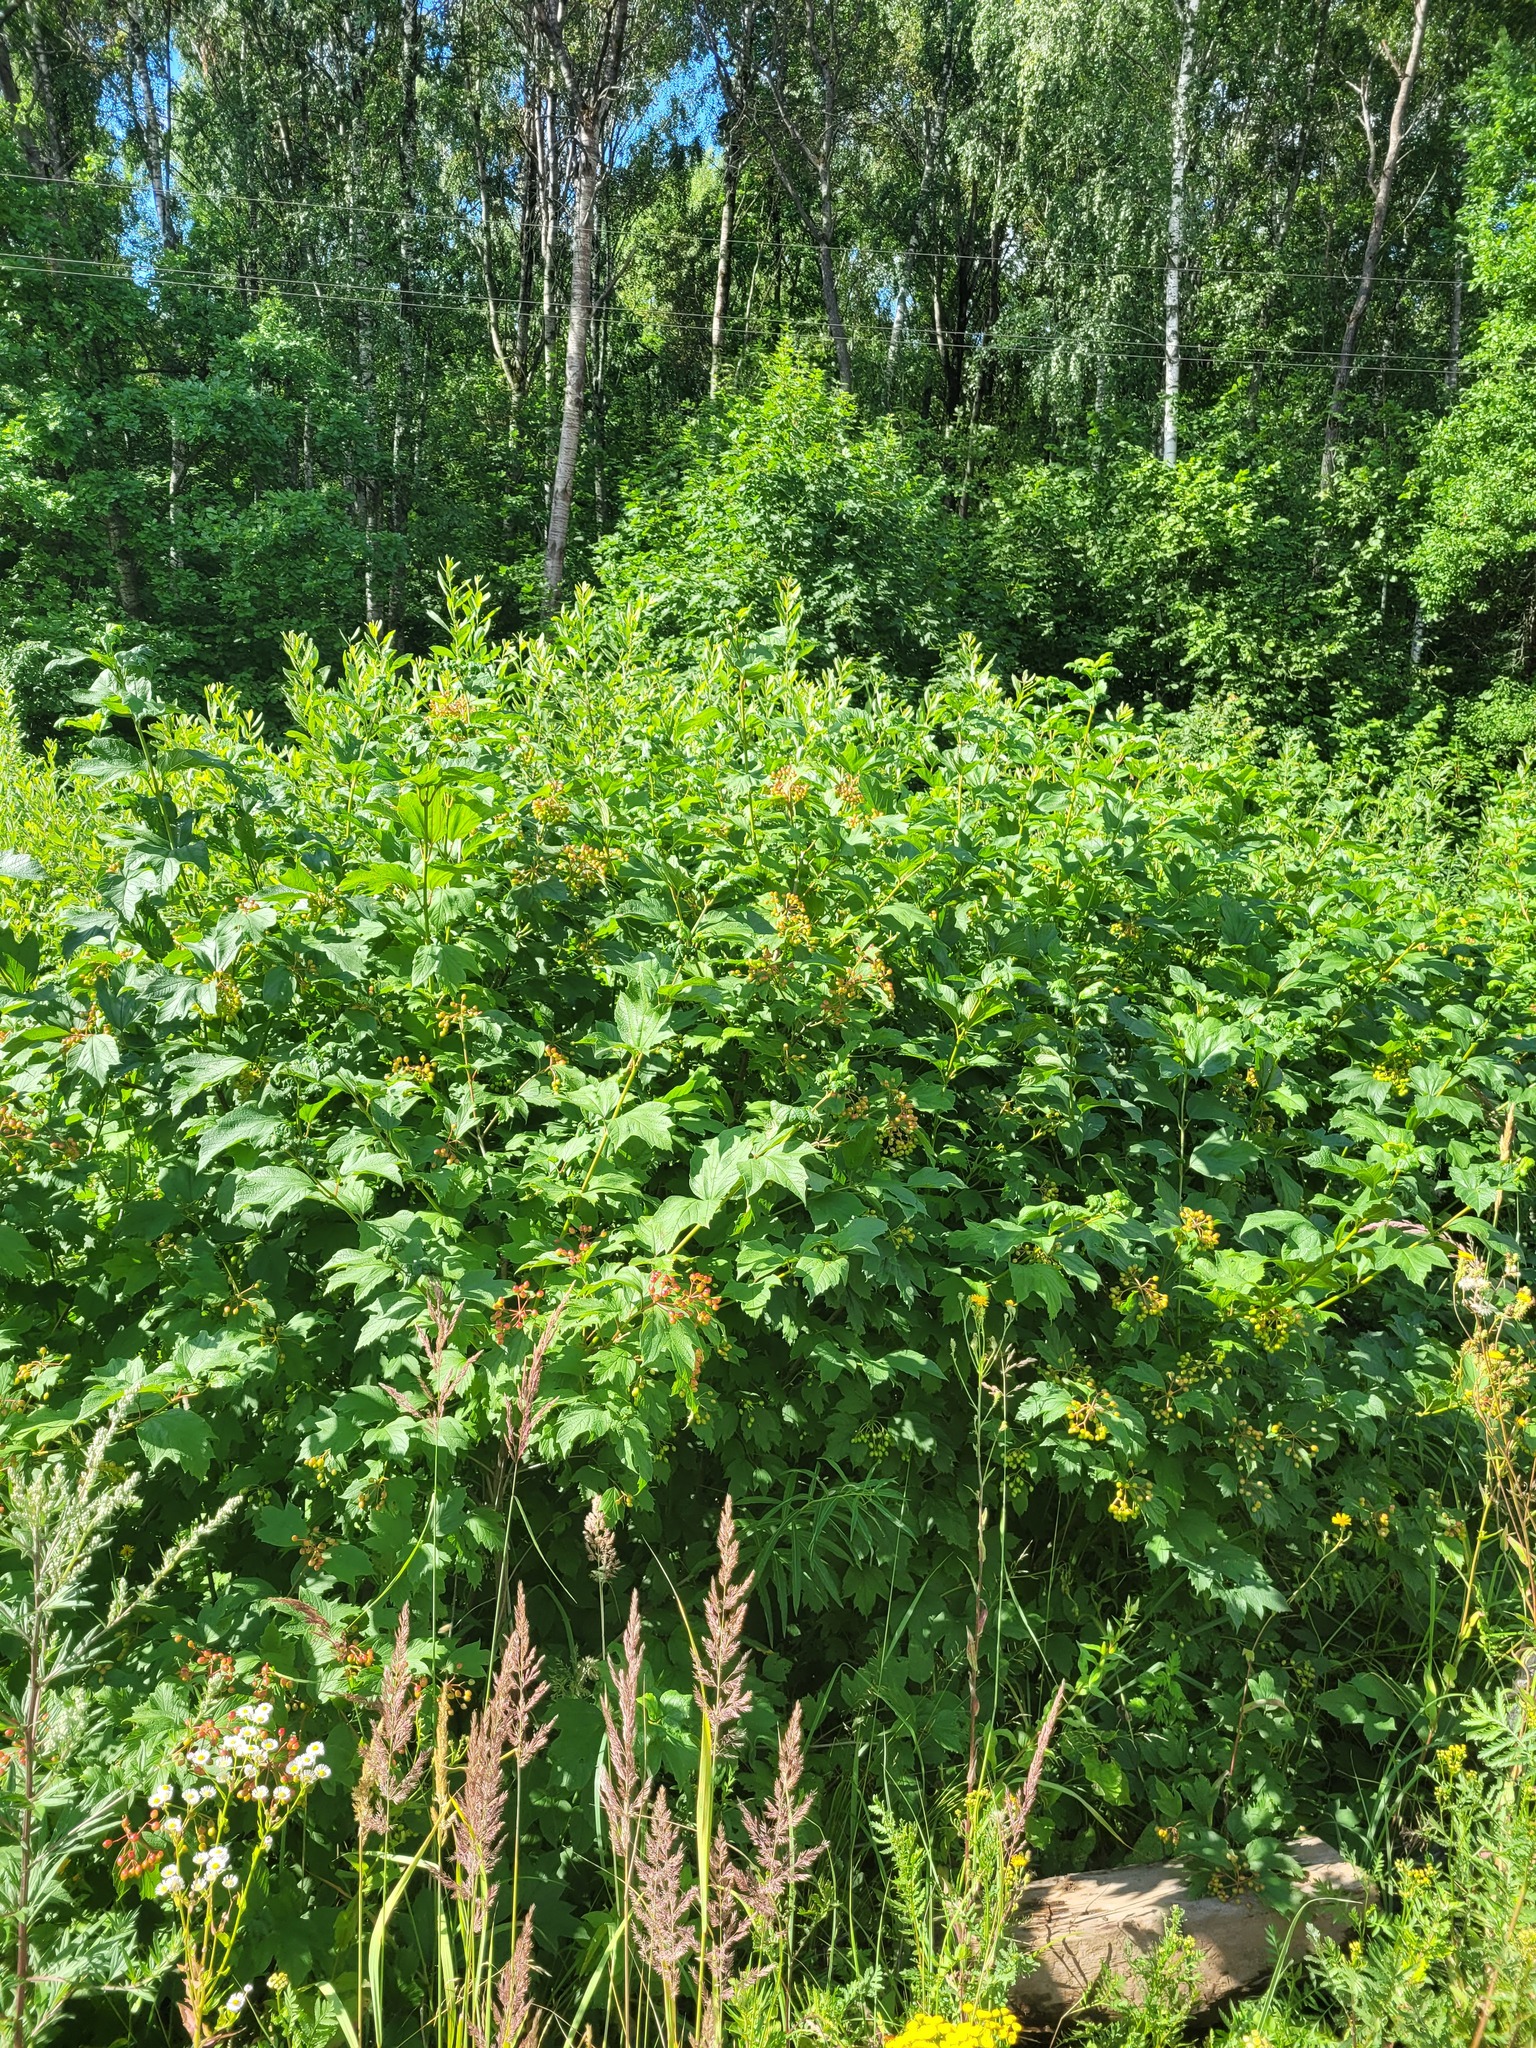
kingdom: Plantae
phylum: Tracheophyta
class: Magnoliopsida
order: Dipsacales
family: Viburnaceae
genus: Viburnum
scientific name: Viburnum opulus
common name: Guelder-rose
